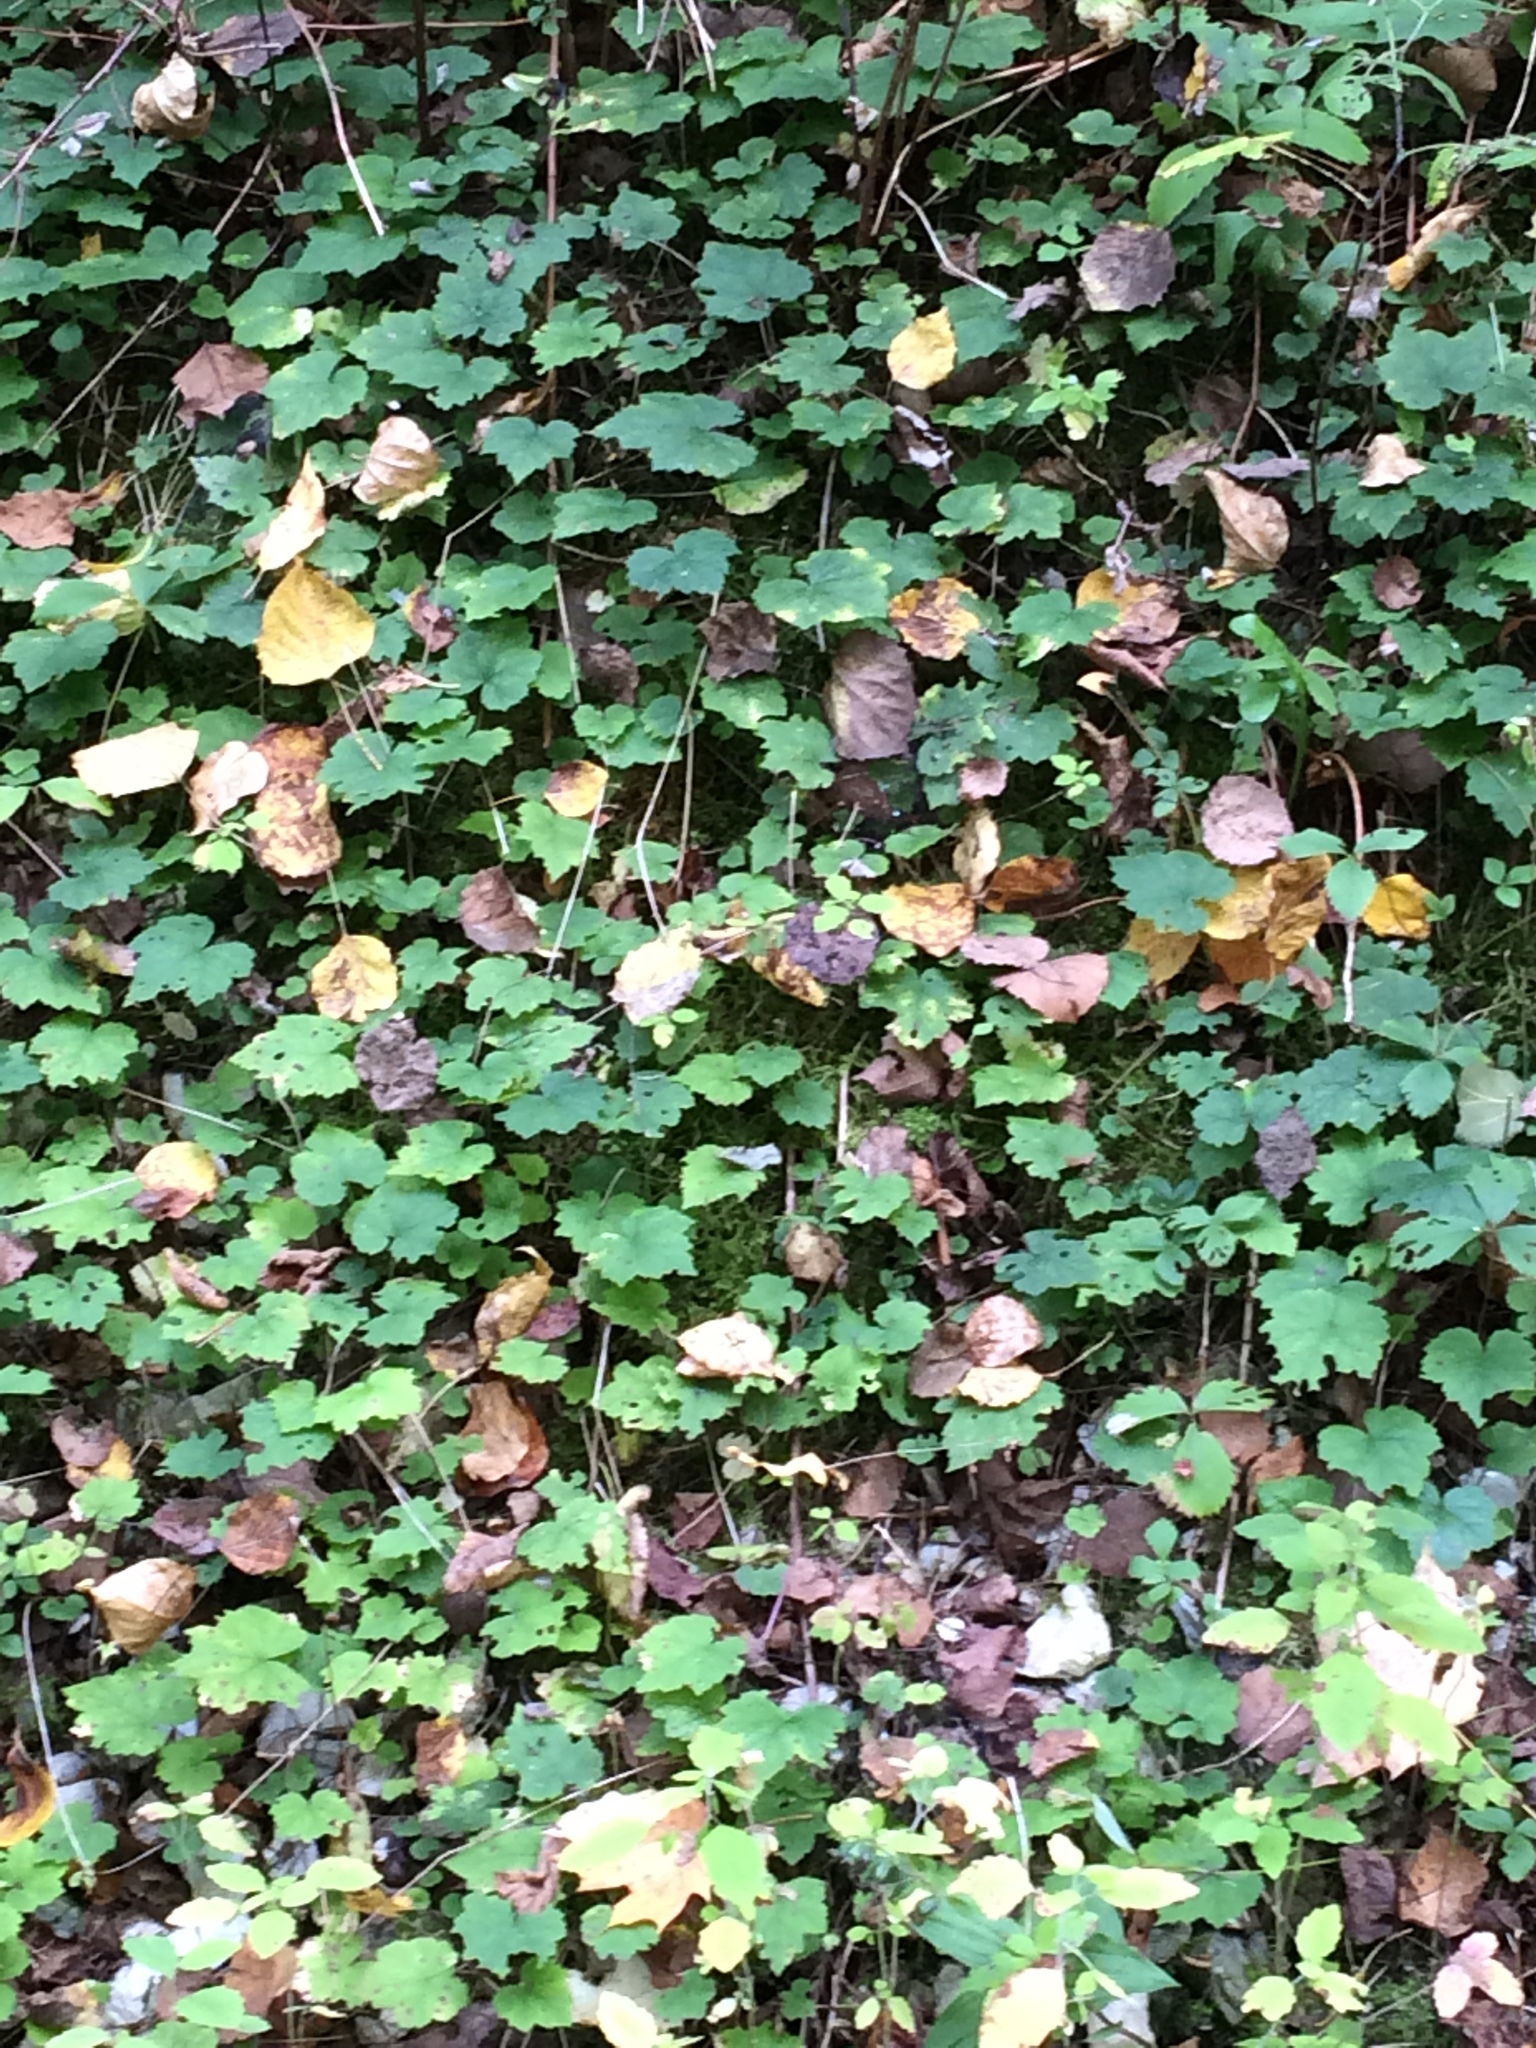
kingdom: Plantae
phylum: Tracheophyta
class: Magnoliopsida
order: Saxifragales
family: Saxifragaceae
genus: Tiarella
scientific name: Tiarella stolonifera
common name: Stoloniferous foamflower
